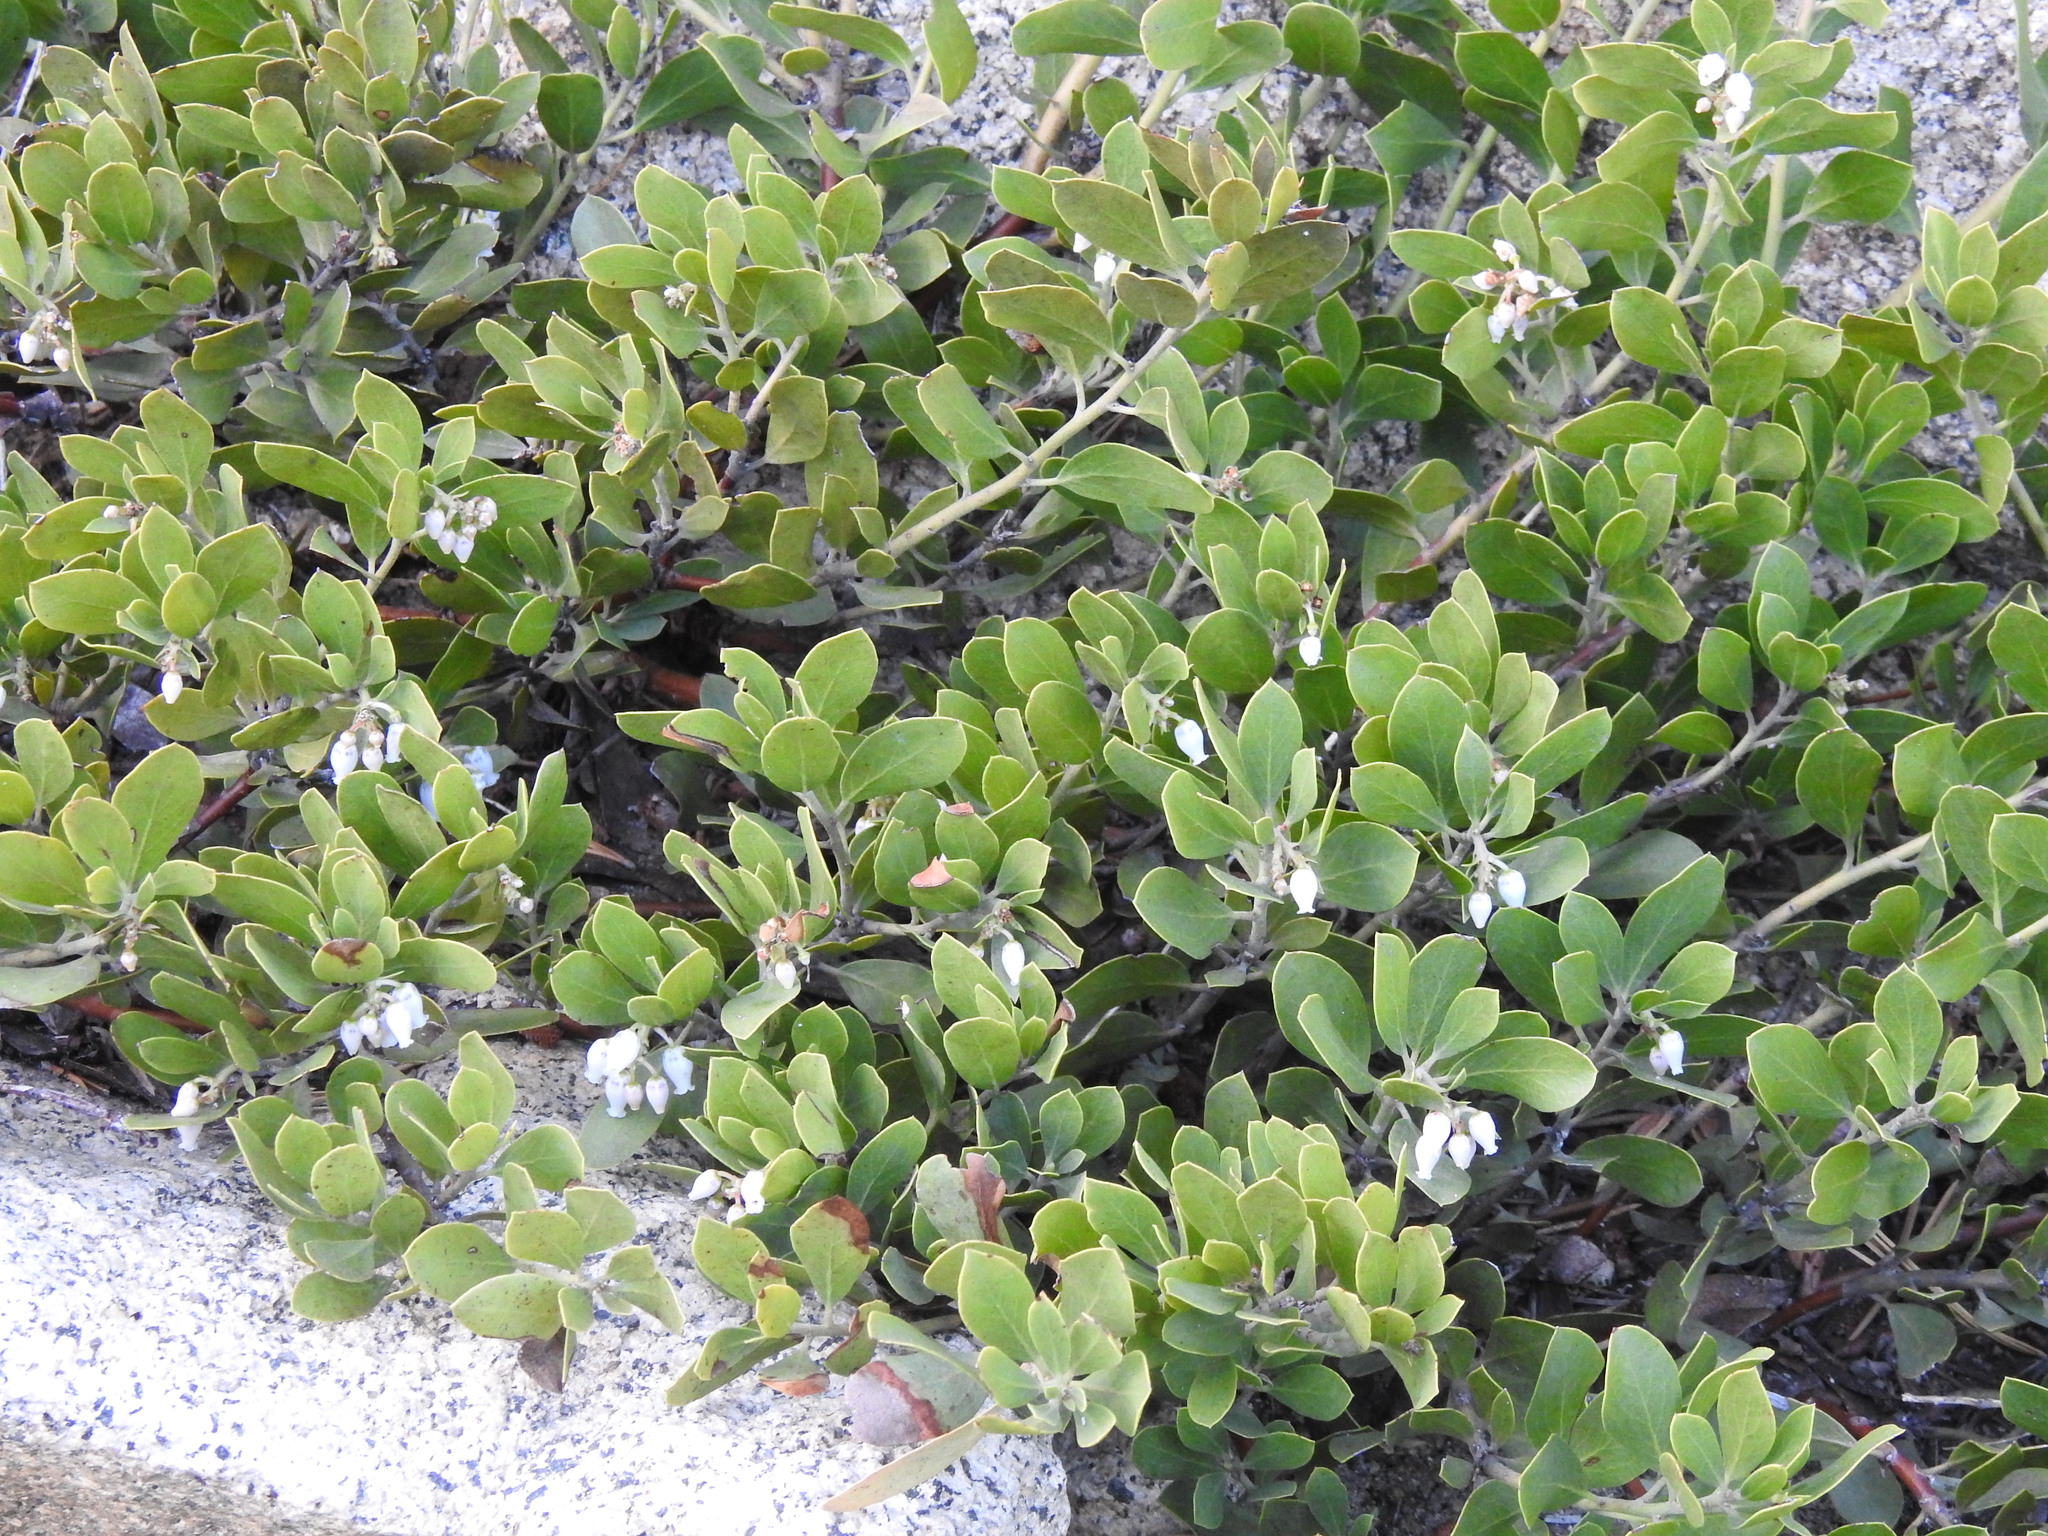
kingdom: Plantae
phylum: Tracheophyta
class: Magnoliopsida
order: Ericales
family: Ericaceae
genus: Arctostaphylos
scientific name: Arctostaphylos nevadensis
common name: Pinemat manzanita
